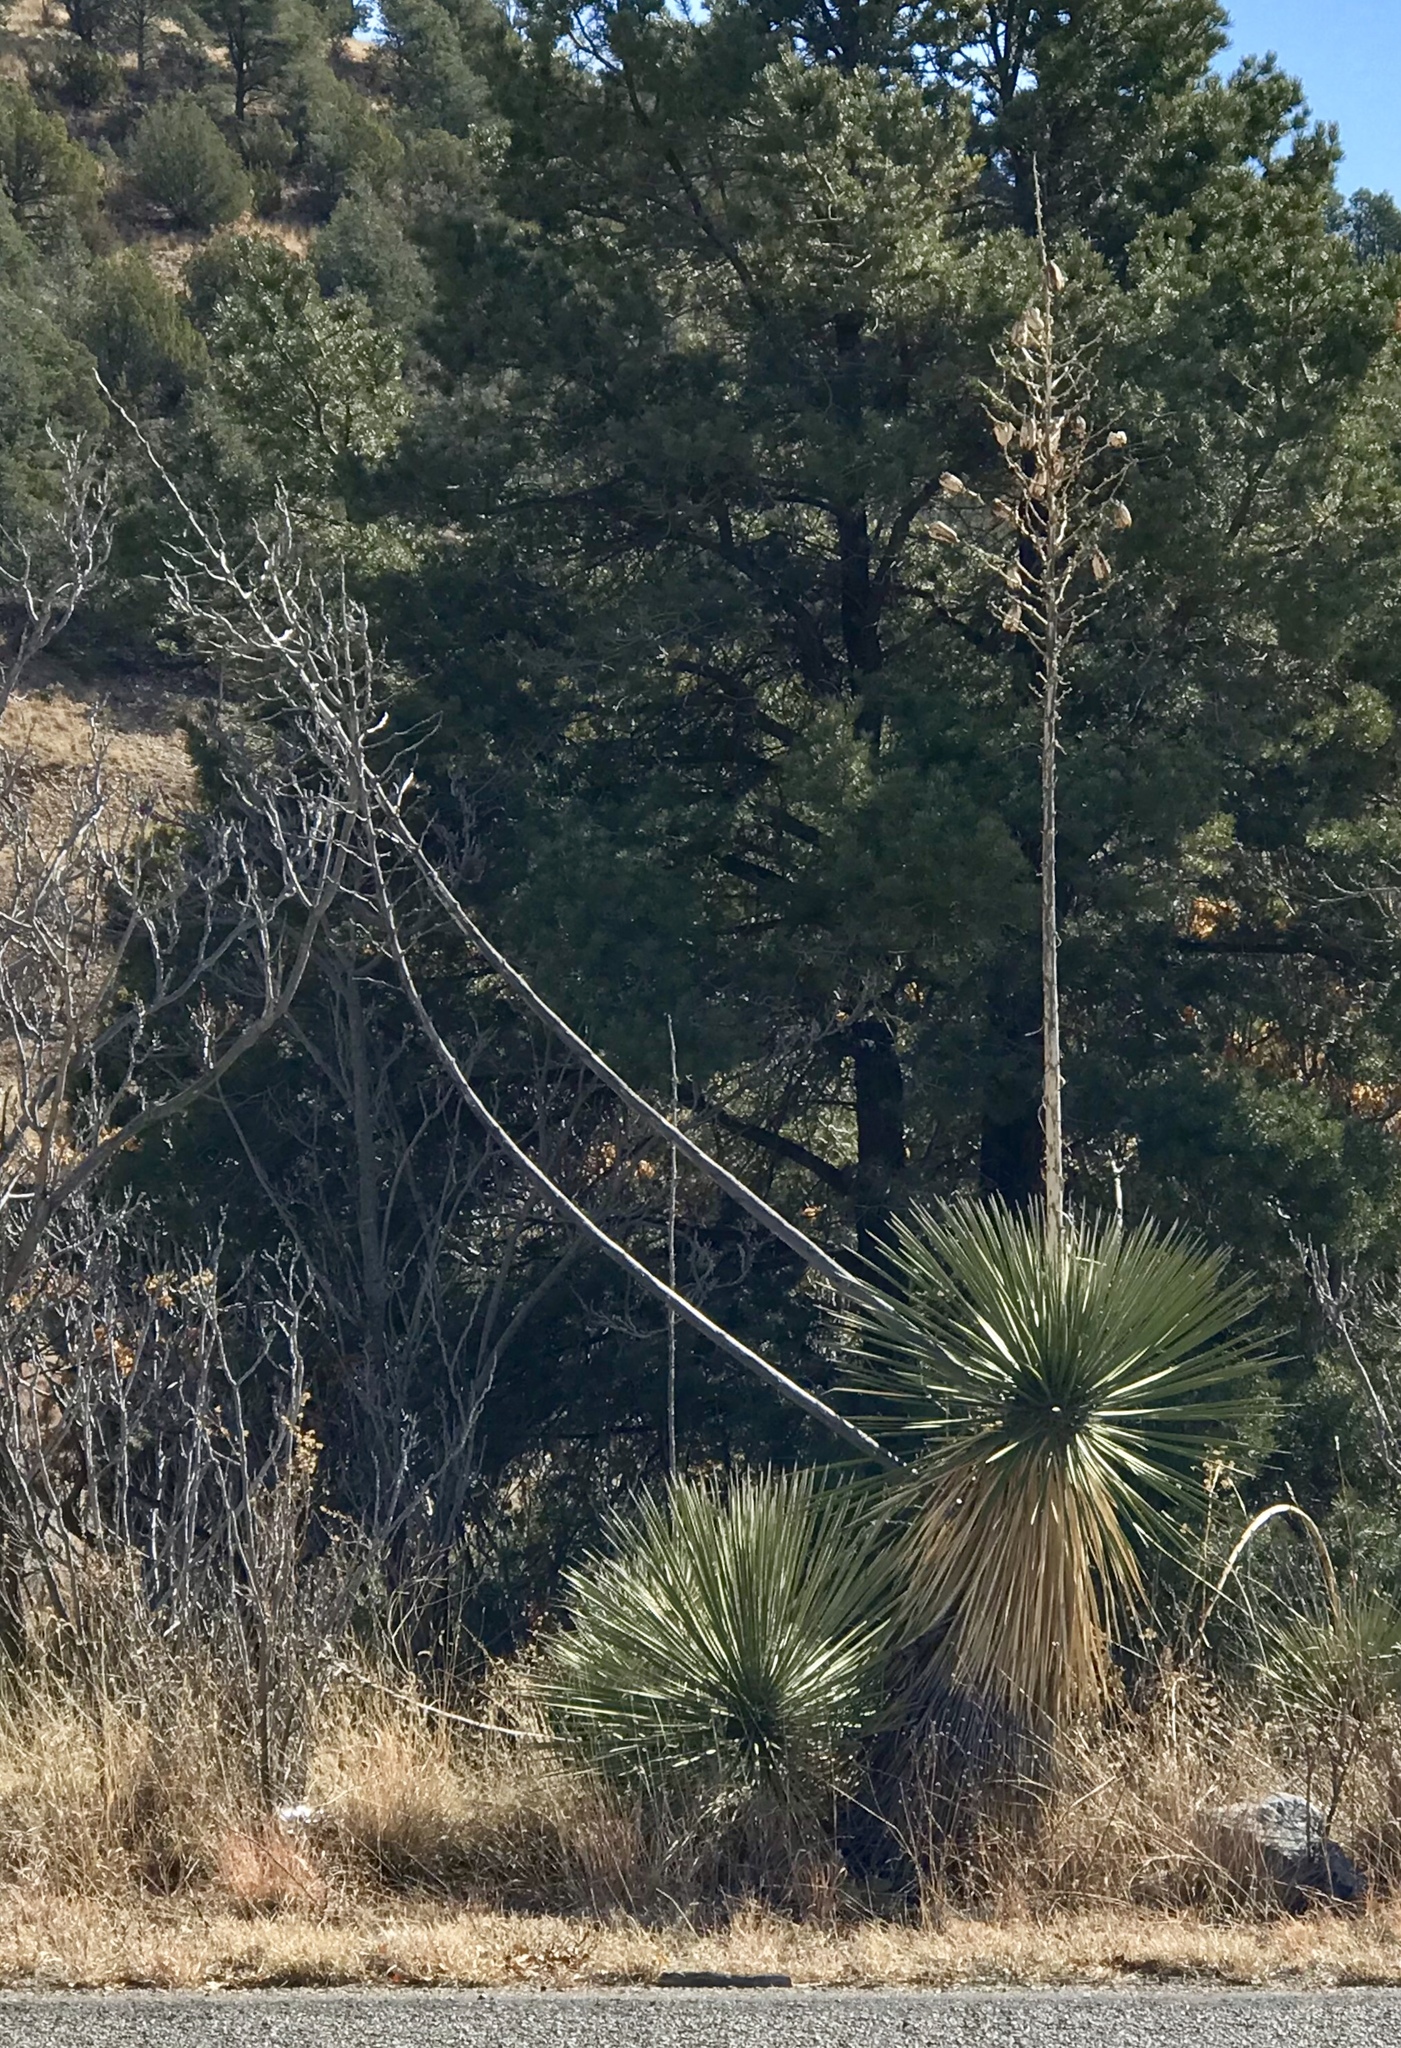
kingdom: Plantae
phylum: Tracheophyta
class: Liliopsida
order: Asparagales
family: Asparagaceae
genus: Yucca
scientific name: Yucca elata
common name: Palmella
